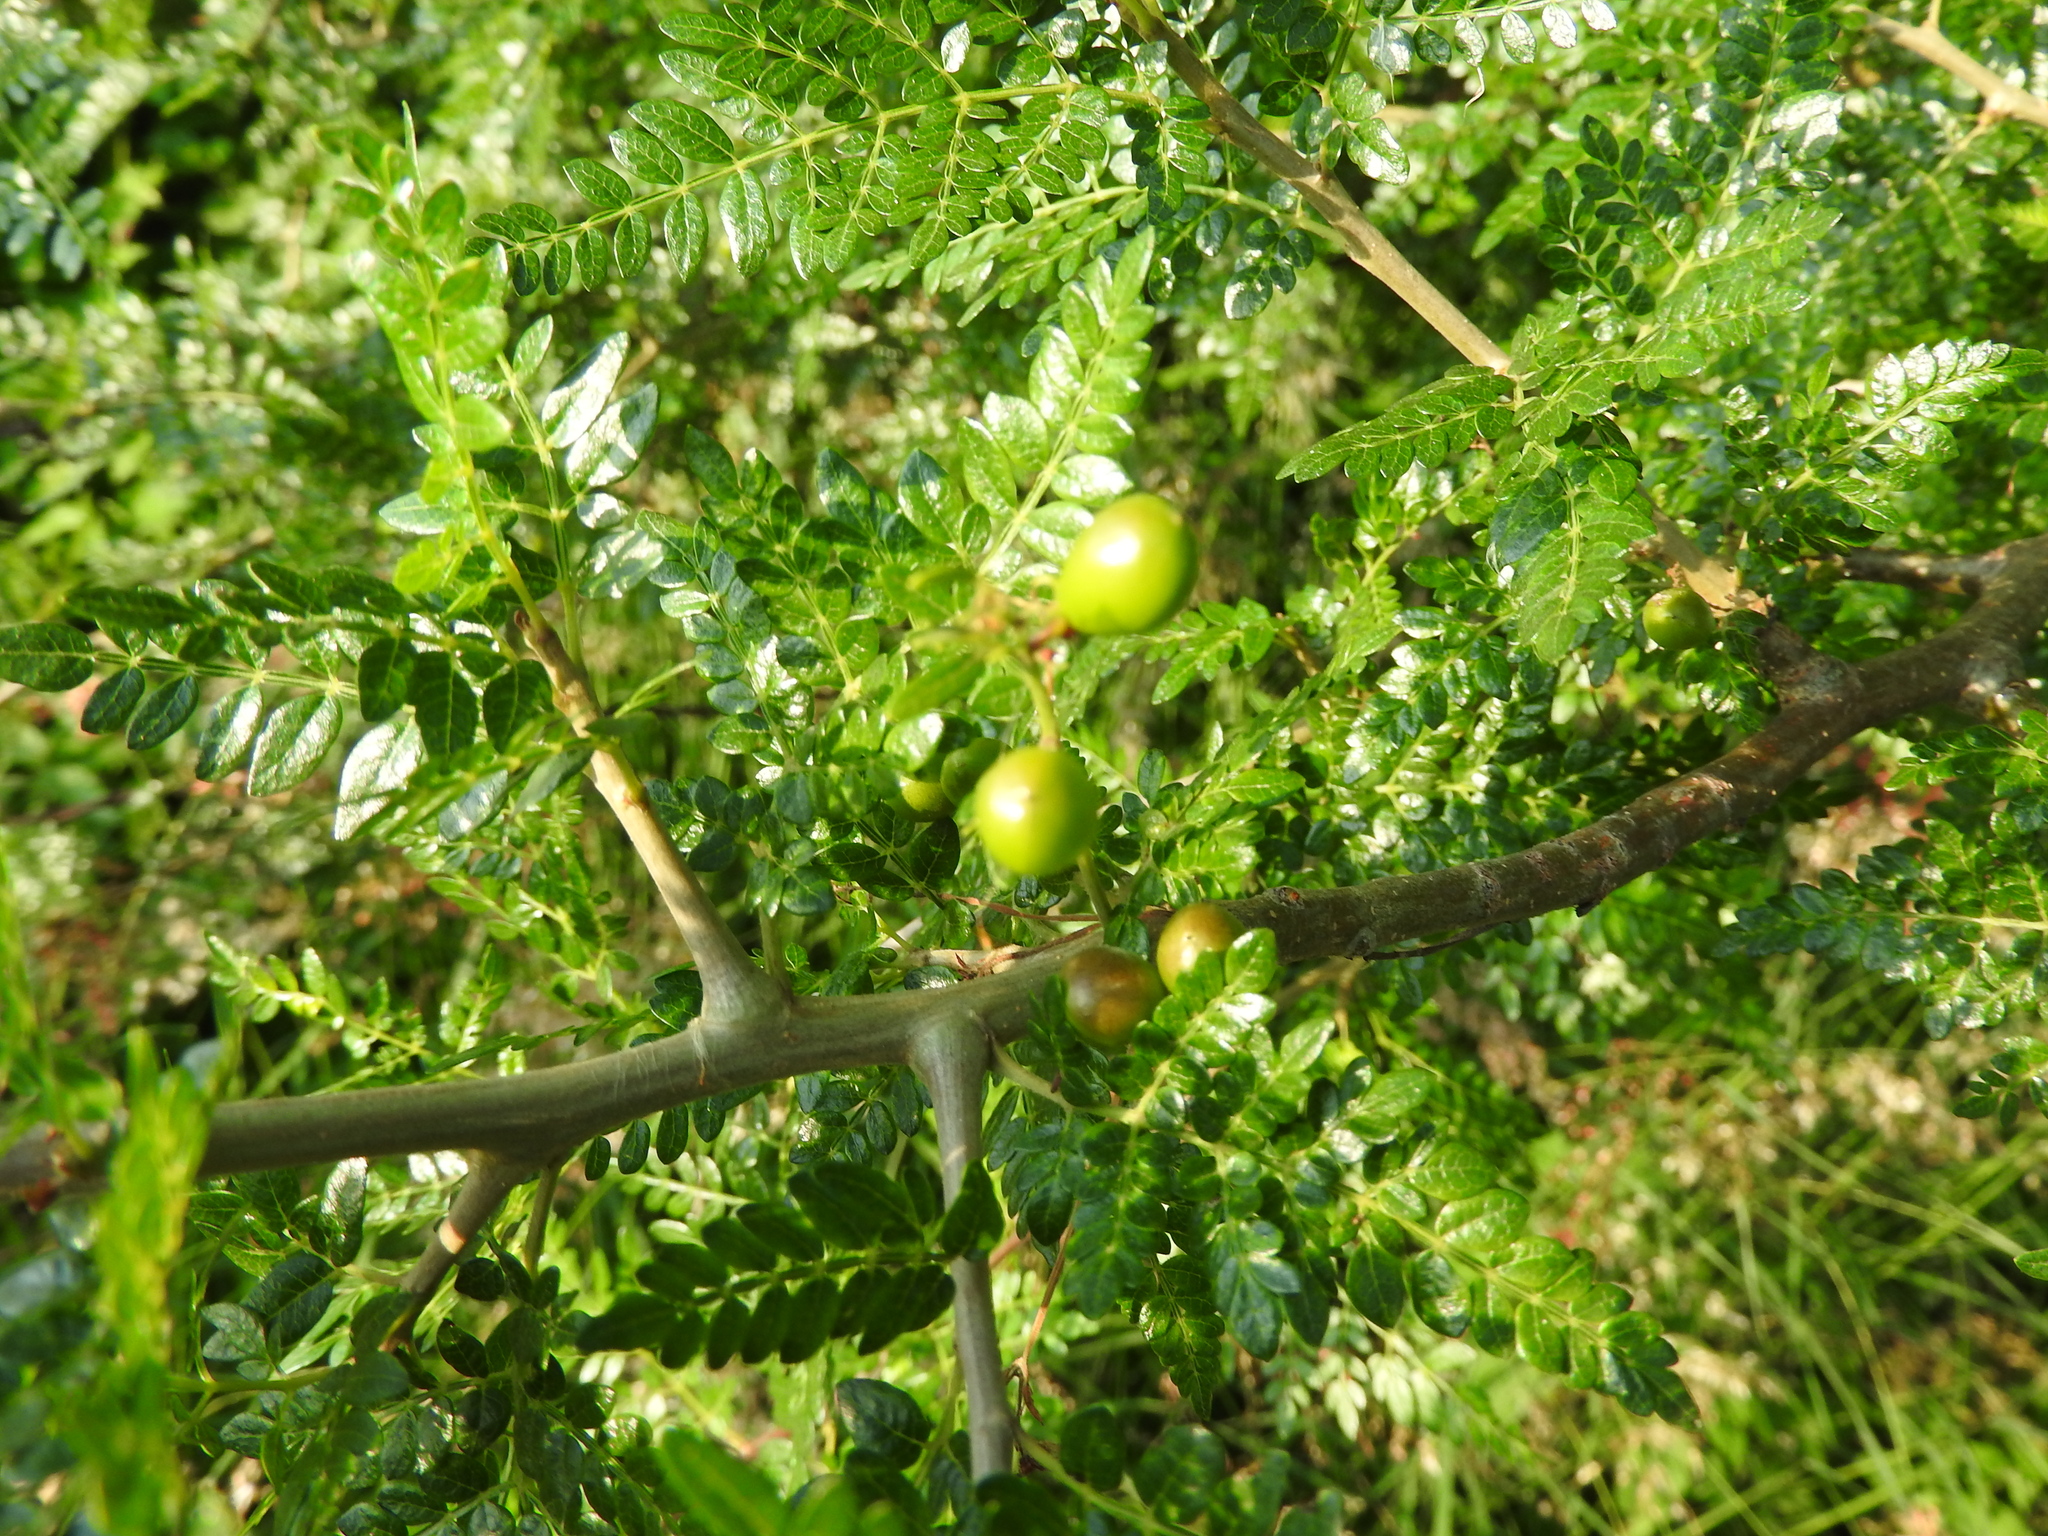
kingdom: Plantae
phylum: Tracheophyta
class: Magnoliopsida
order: Sapindales
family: Burseraceae
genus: Bursera
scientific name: Bursera bipinnata
